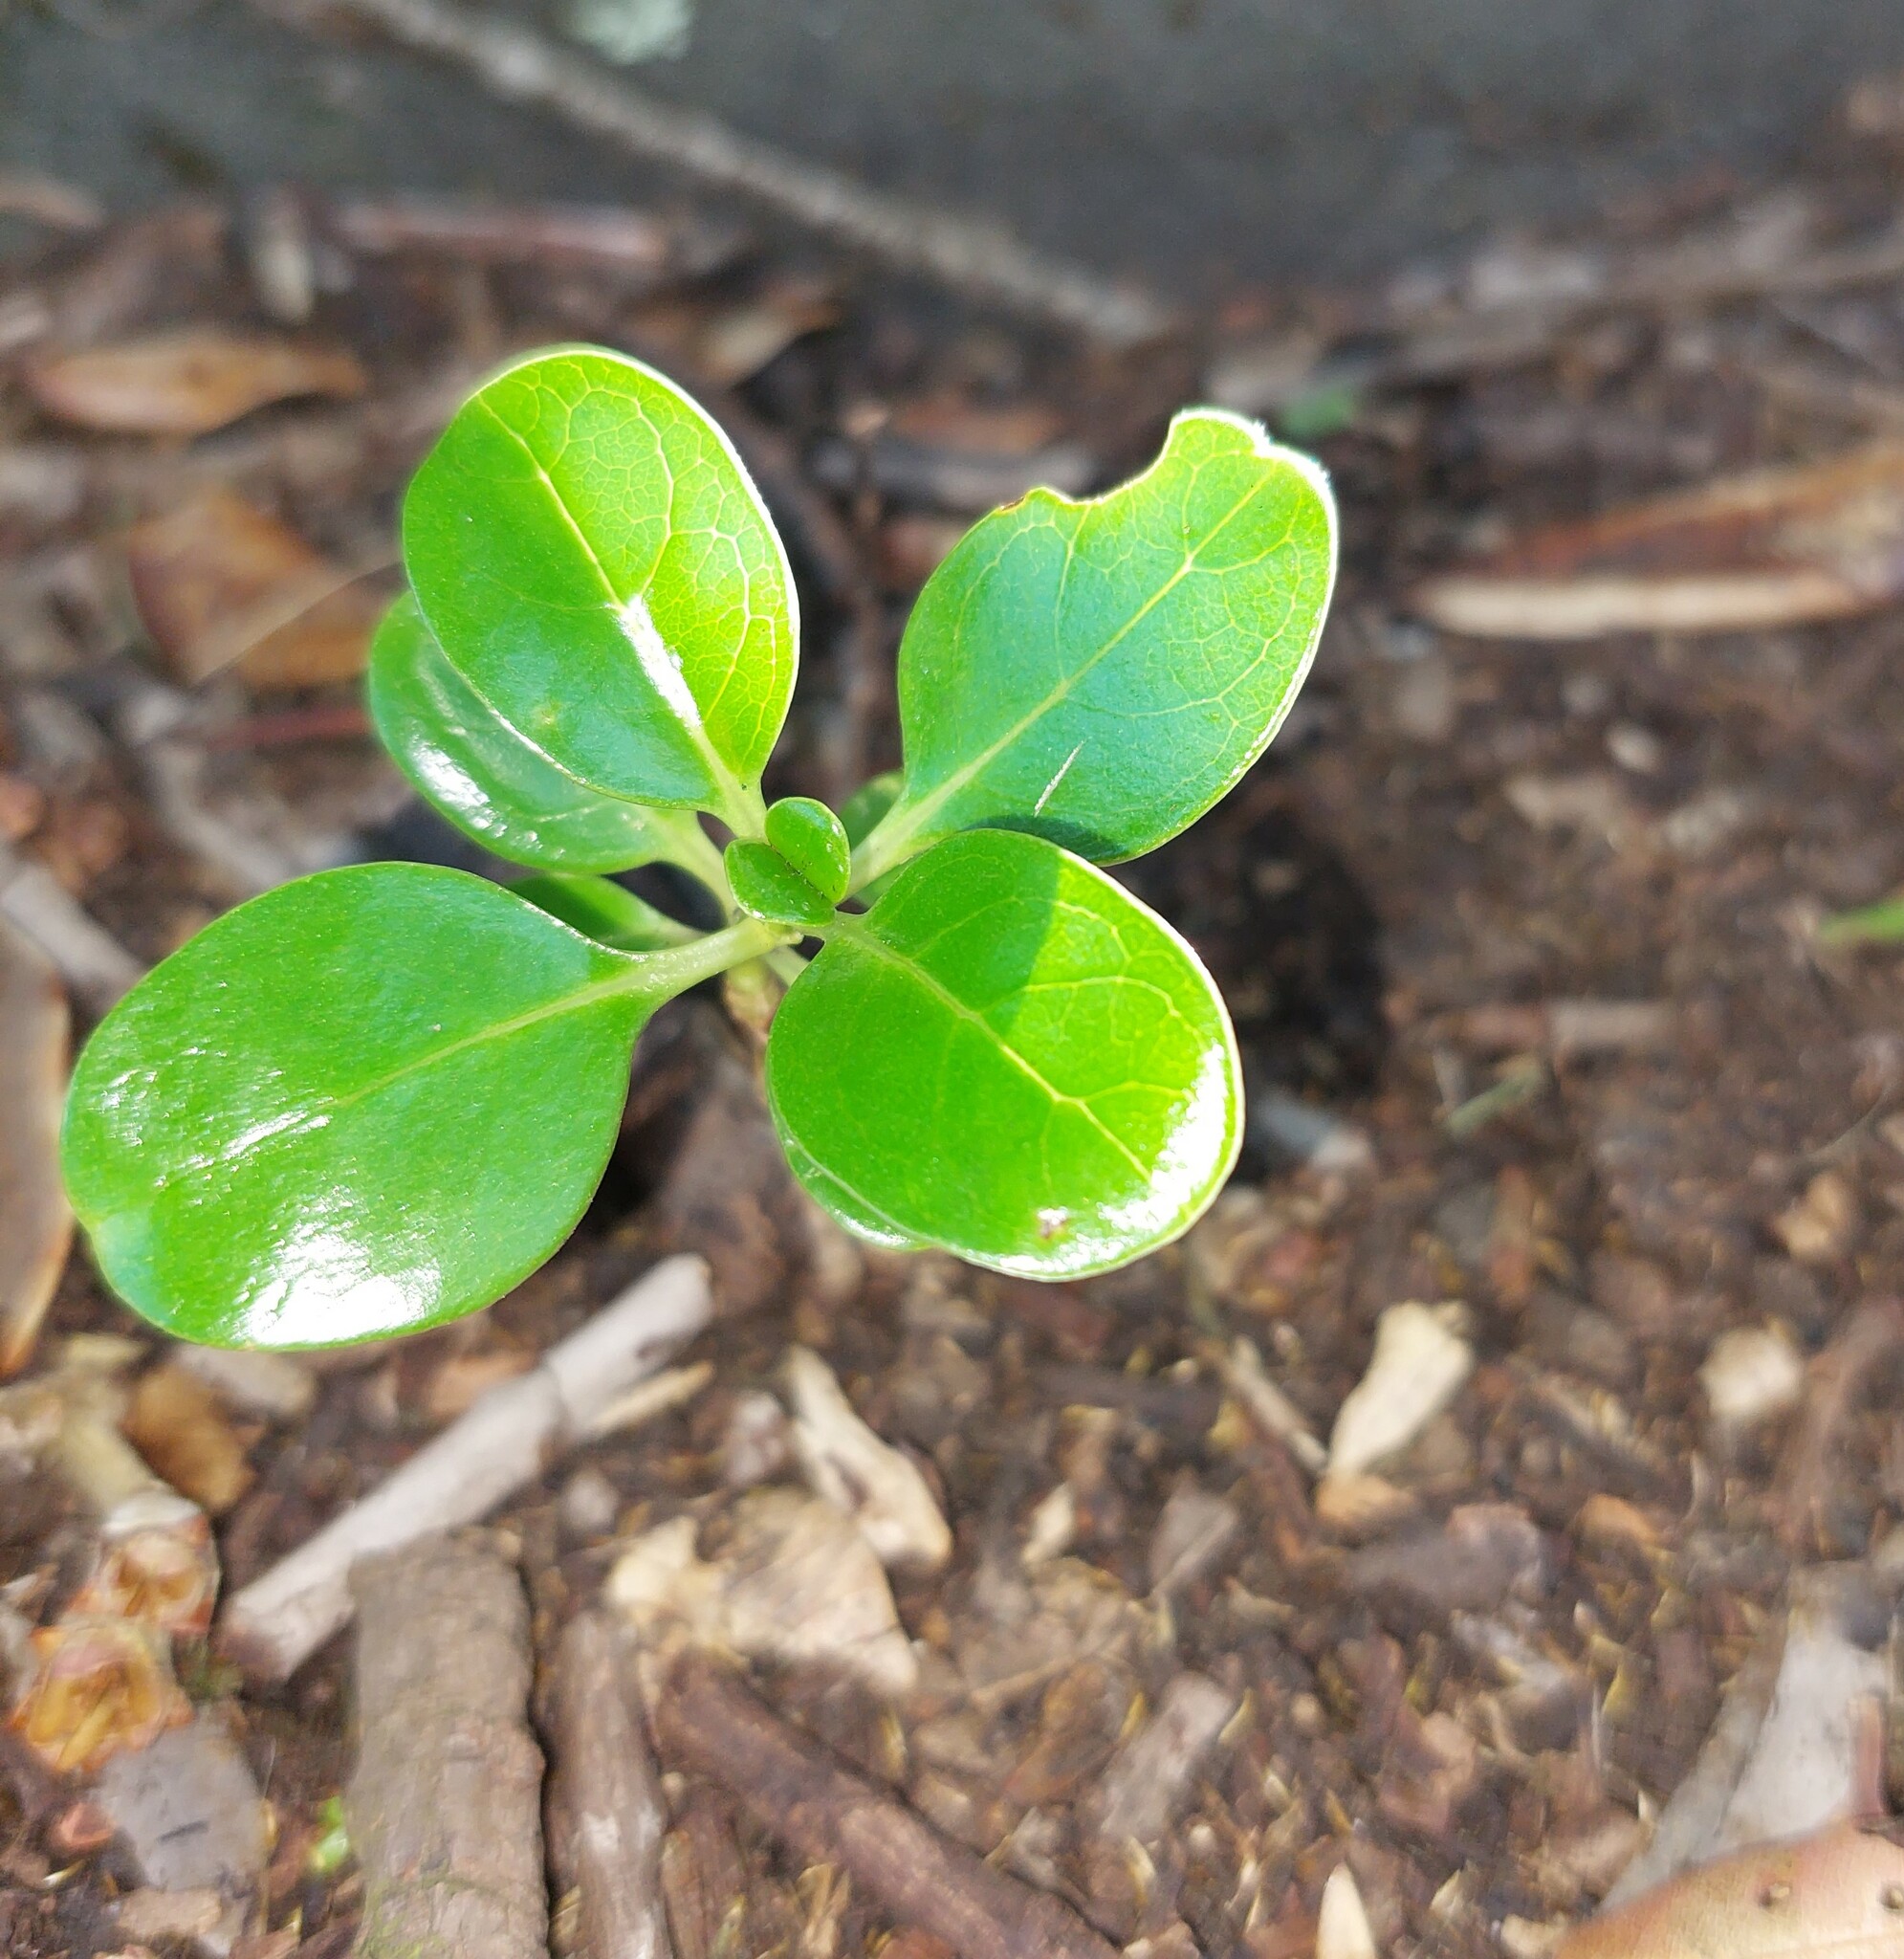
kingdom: Plantae
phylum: Tracheophyta
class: Magnoliopsida
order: Gentianales
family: Rubiaceae
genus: Coprosma
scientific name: Coprosma repens
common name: Tree bedstraw
